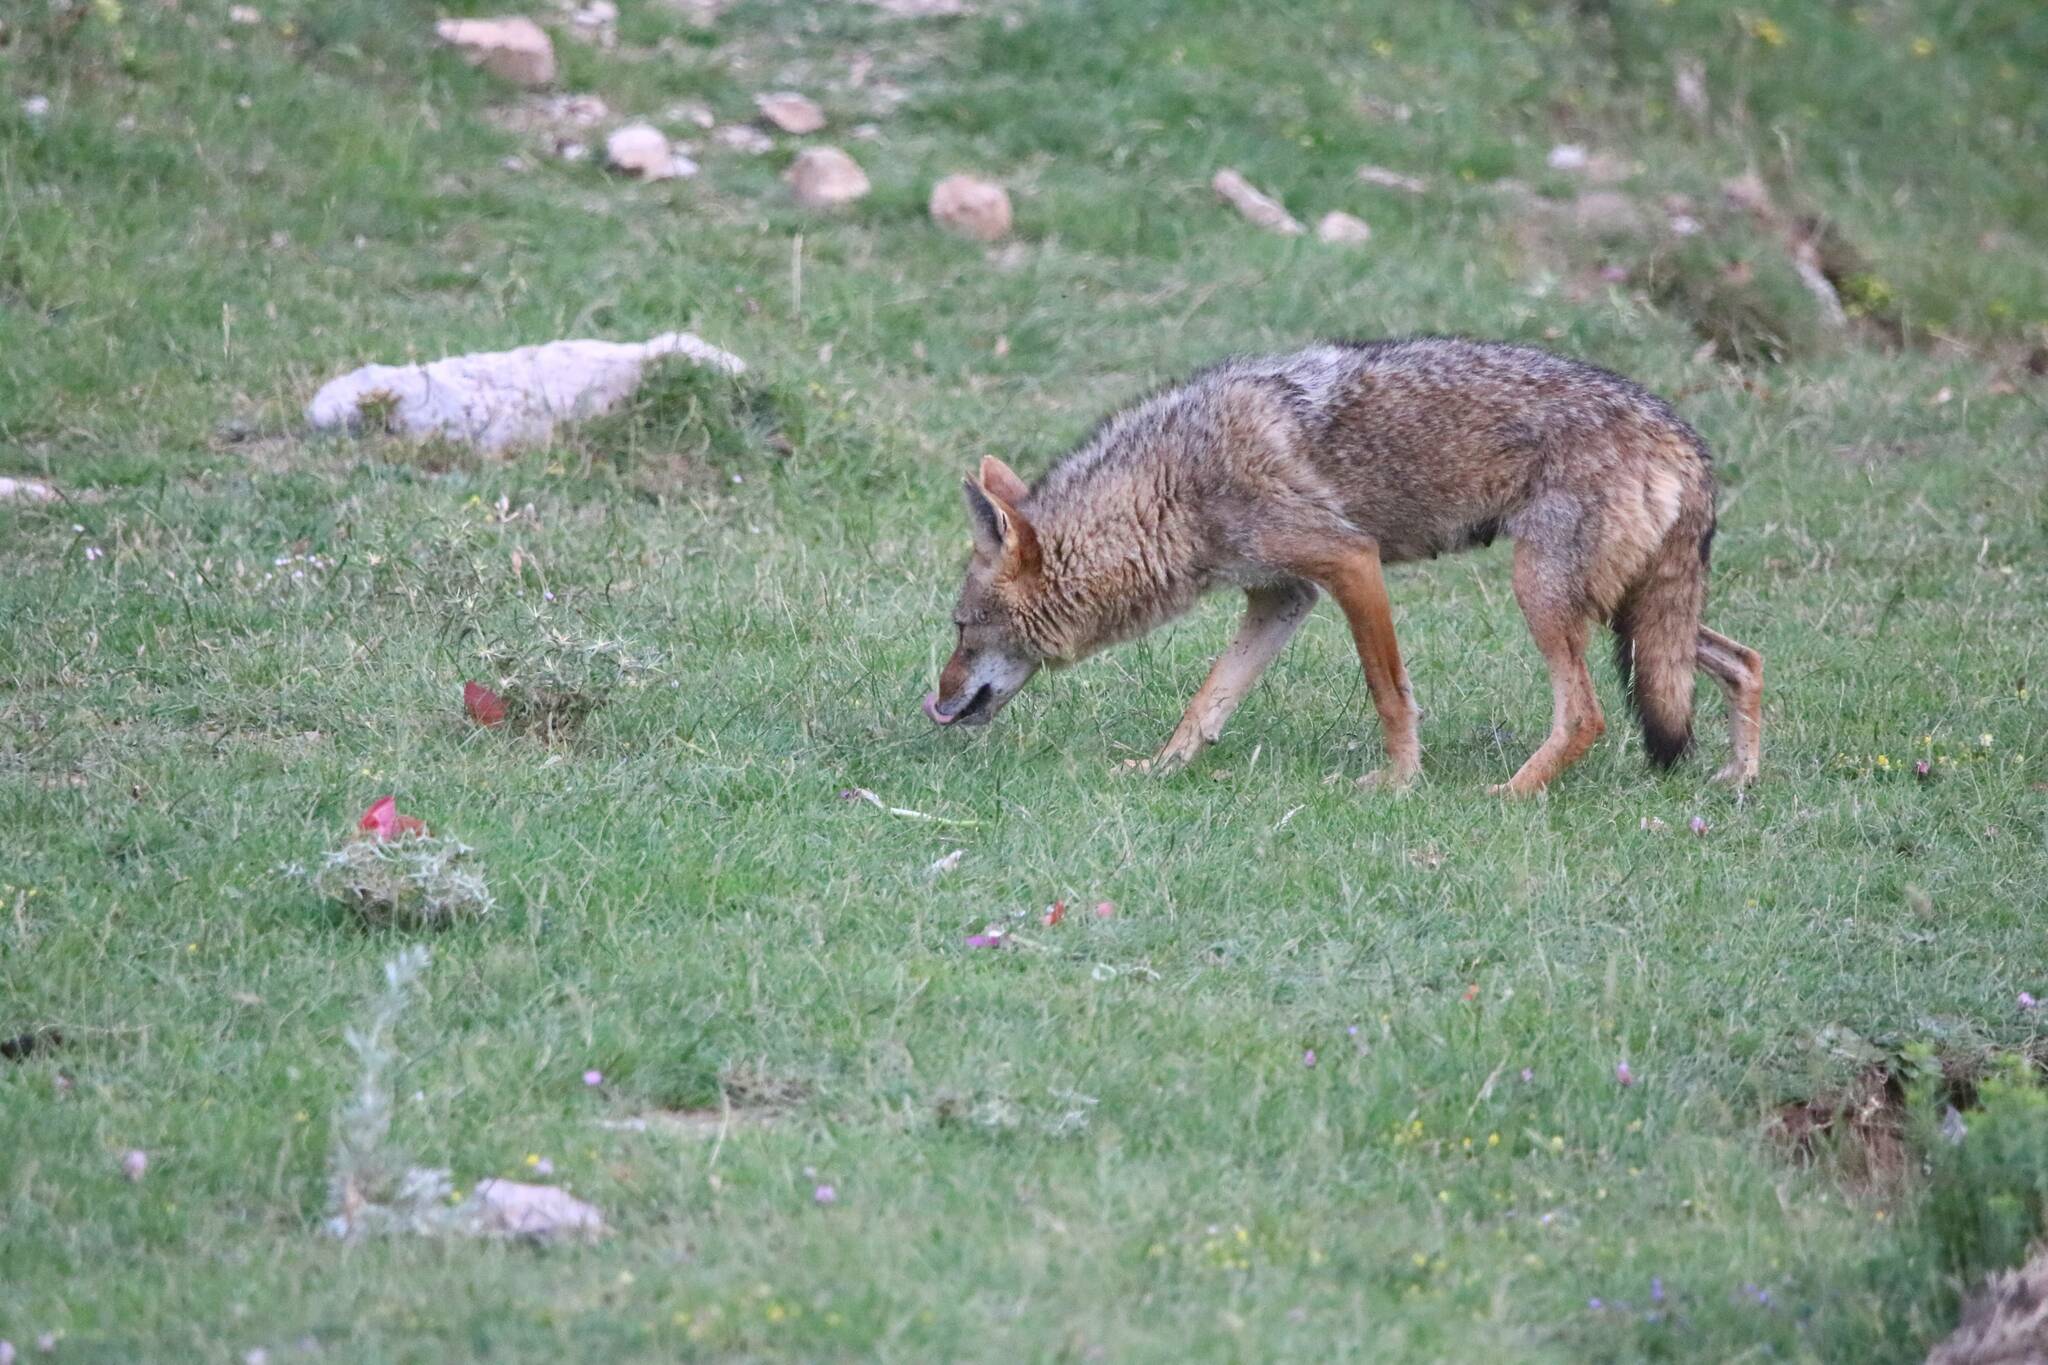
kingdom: Animalia
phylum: Chordata
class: Mammalia
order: Carnivora
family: Canidae
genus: Canis
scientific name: Canis lupaster
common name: African golden wolf
